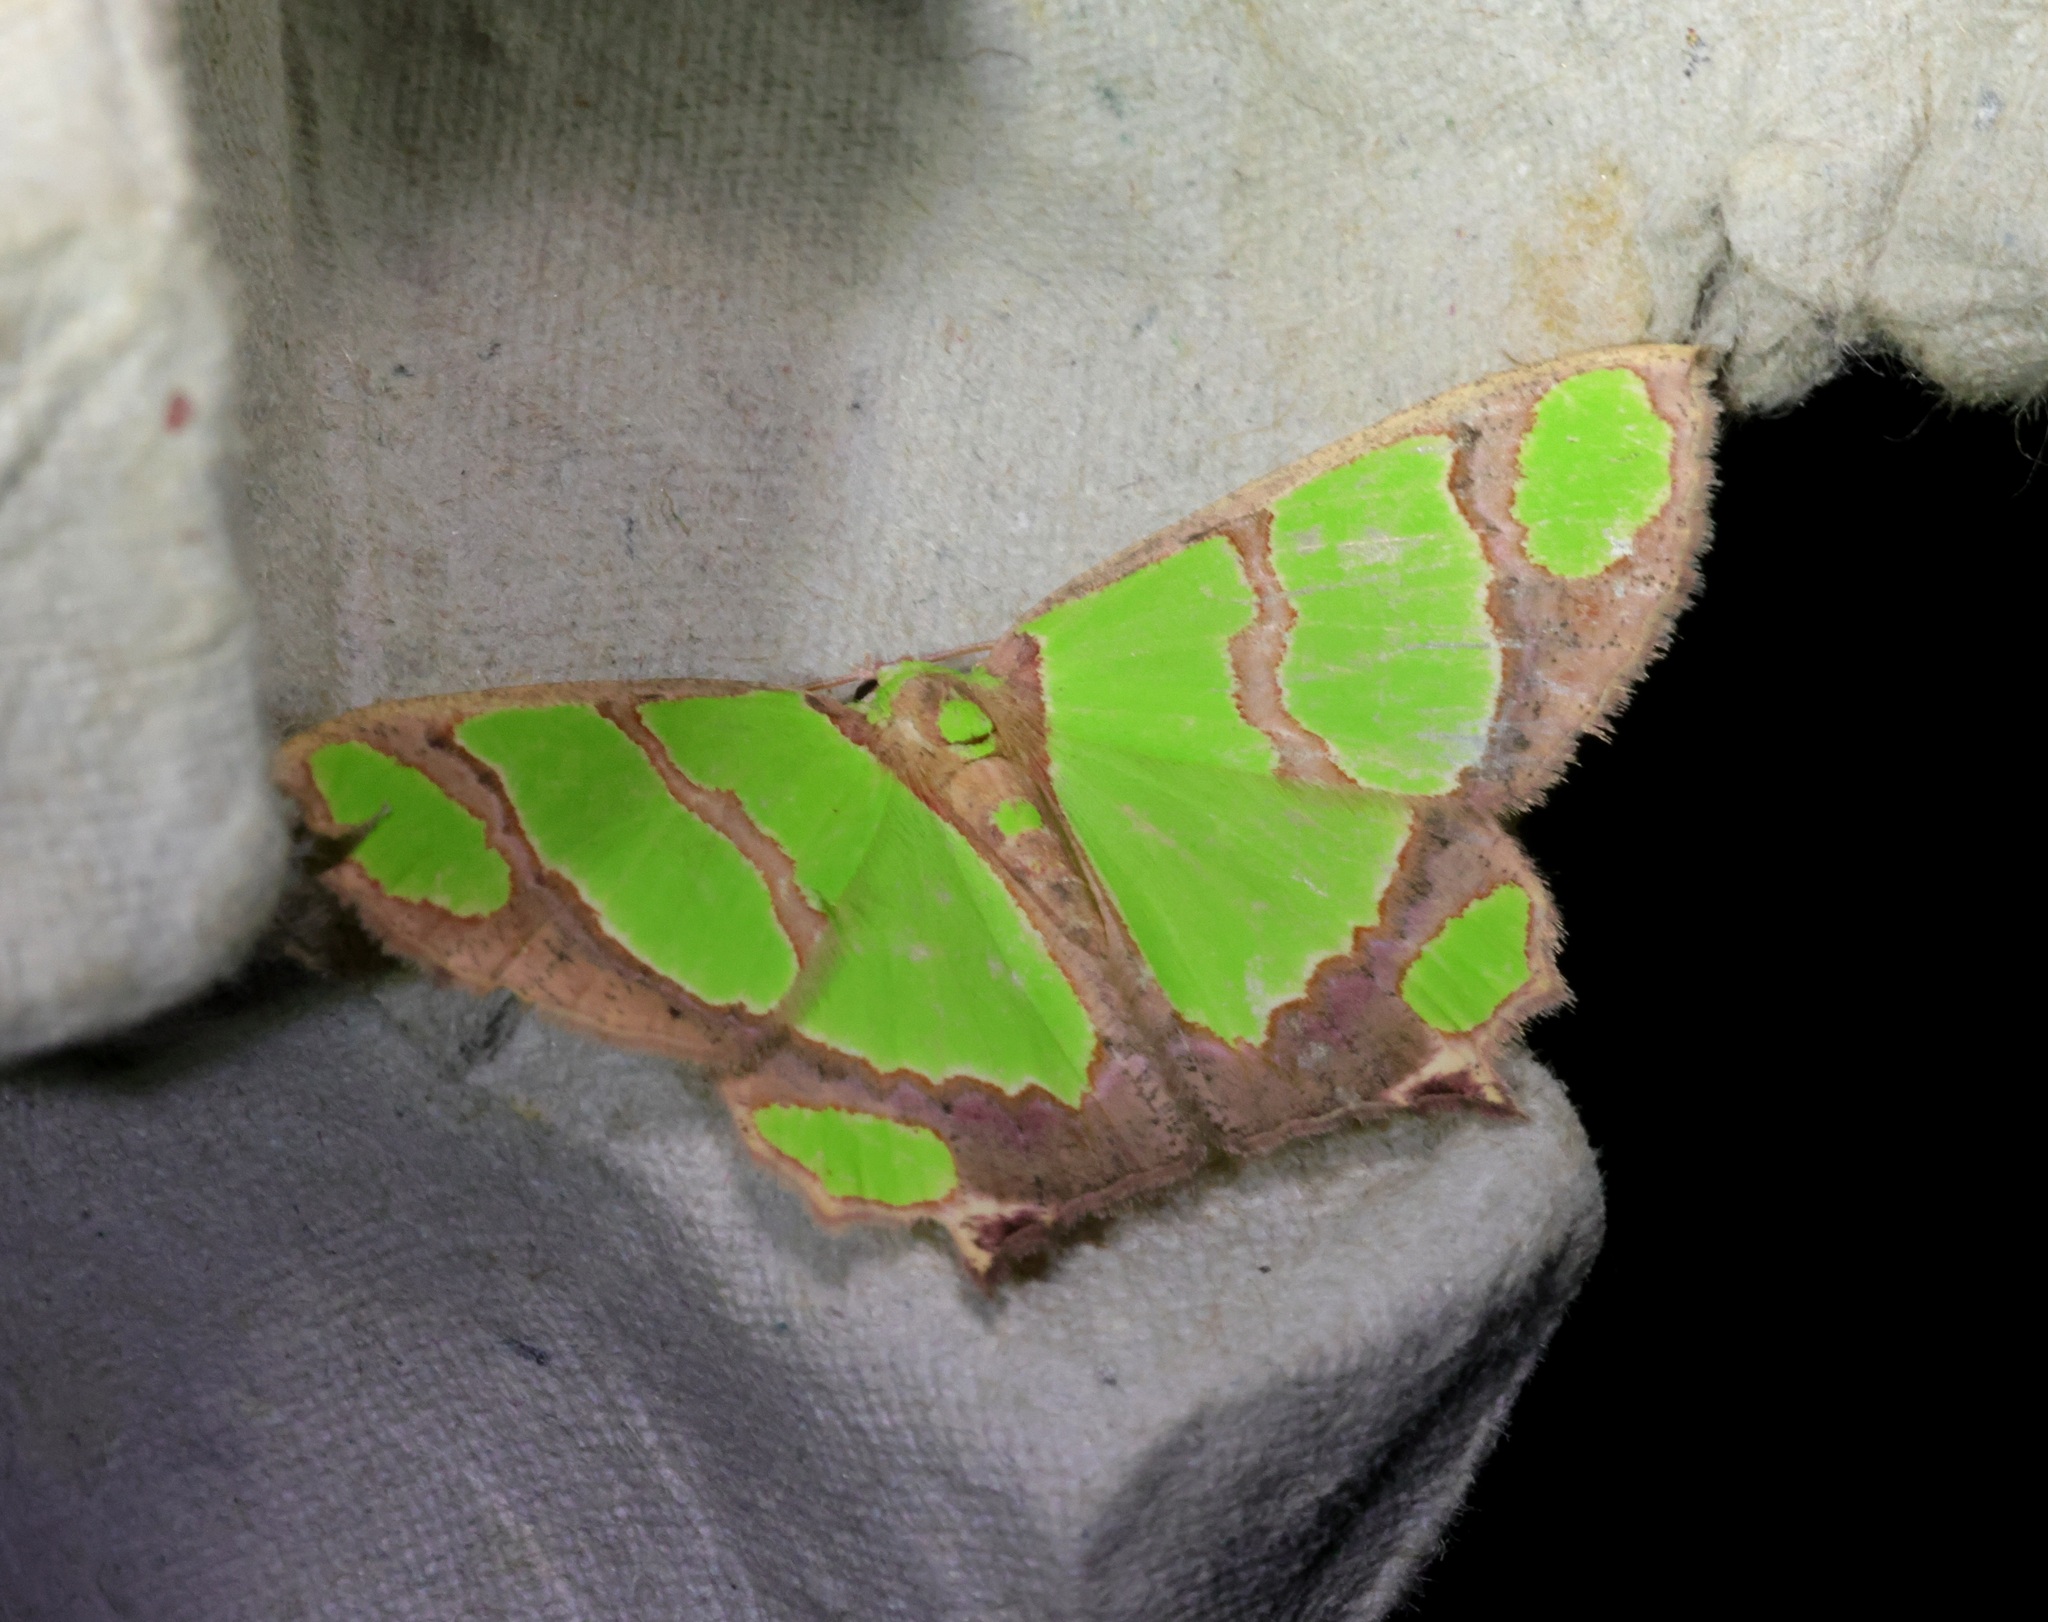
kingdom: Animalia
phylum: Arthropoda
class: Insecta
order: Lepidoptera
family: Geometridae
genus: Agathia
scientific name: Agathia carissima
